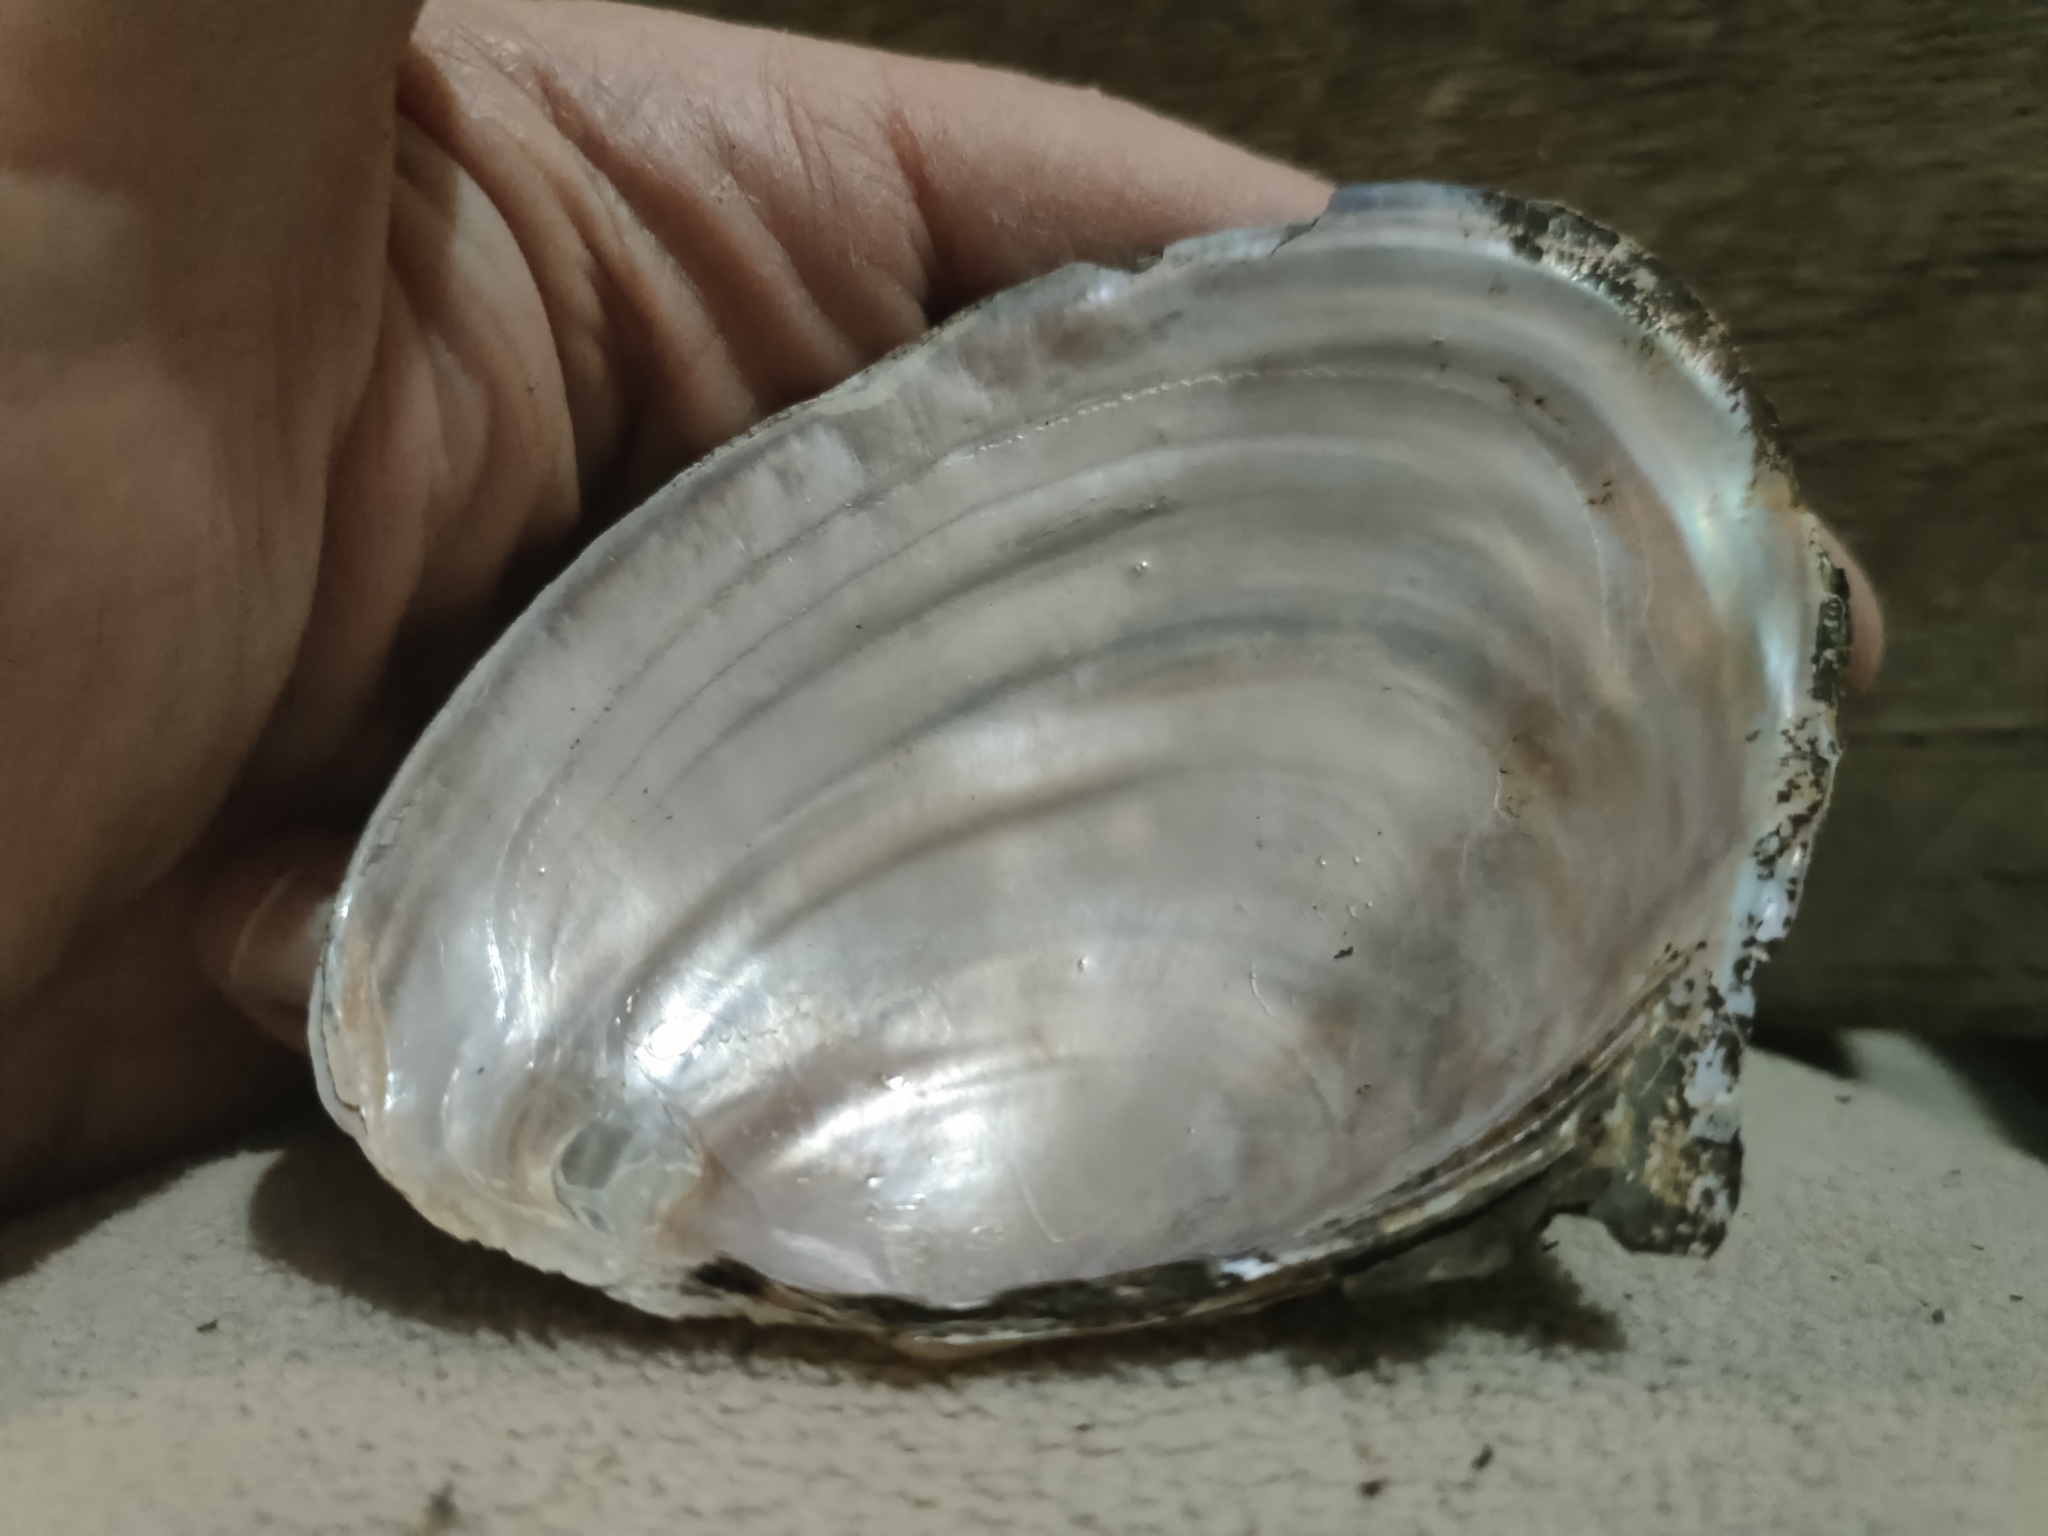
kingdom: Animalia
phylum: Mollusca
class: Bivalvia
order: Unionida
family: Unionidae
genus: Potamilus
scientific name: Potamilus ohiensis
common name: Pink papershell
